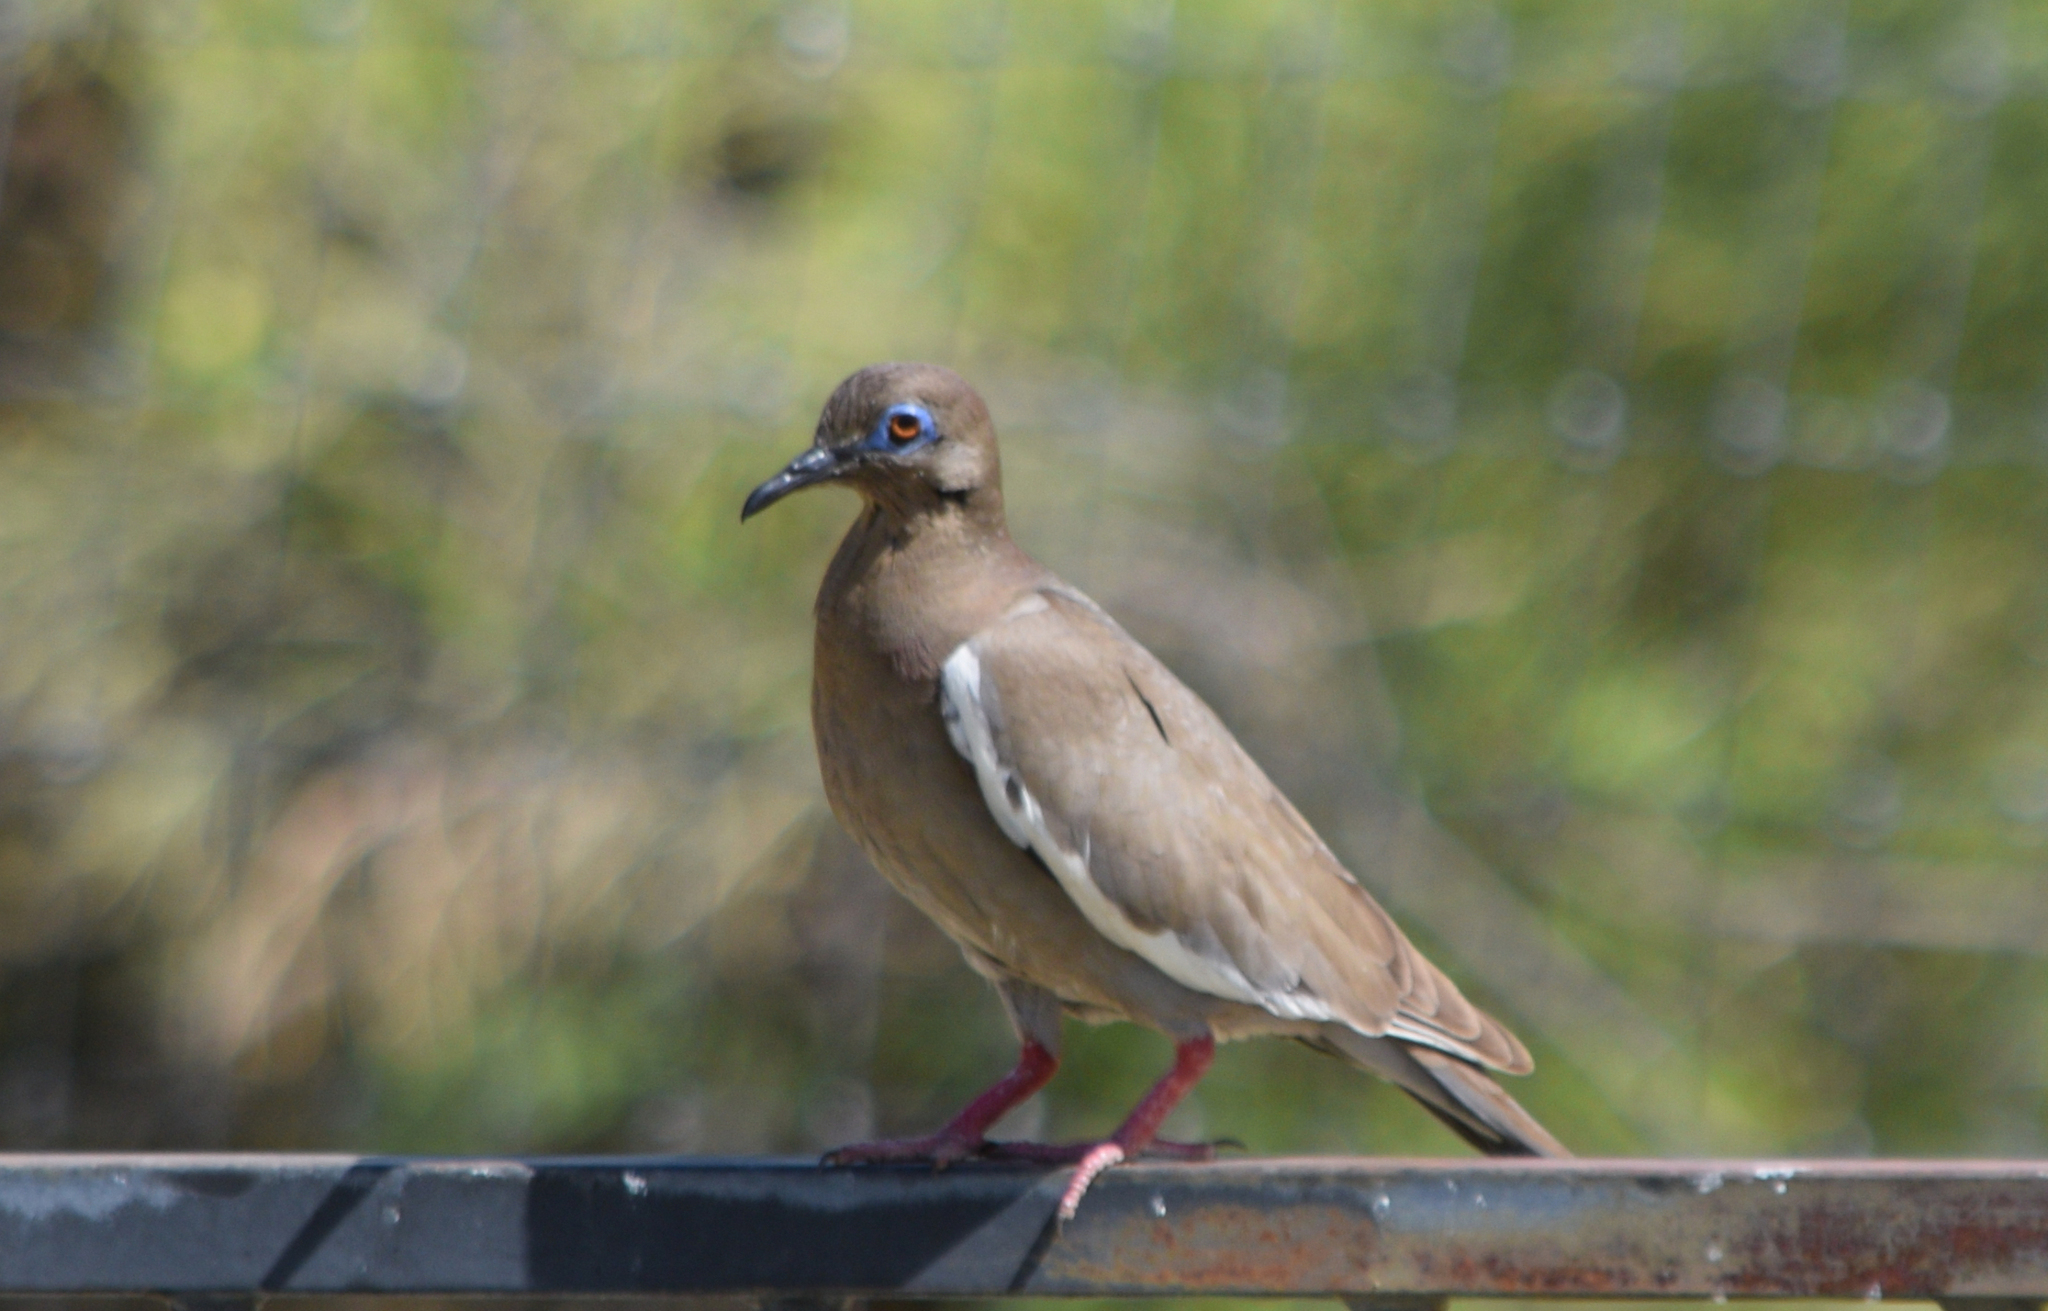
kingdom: Animalia
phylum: Chordata
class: Aves
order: Columbiformes
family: Columbidae
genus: Zenaida
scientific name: Zenaida asiatica
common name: White-winged dove
